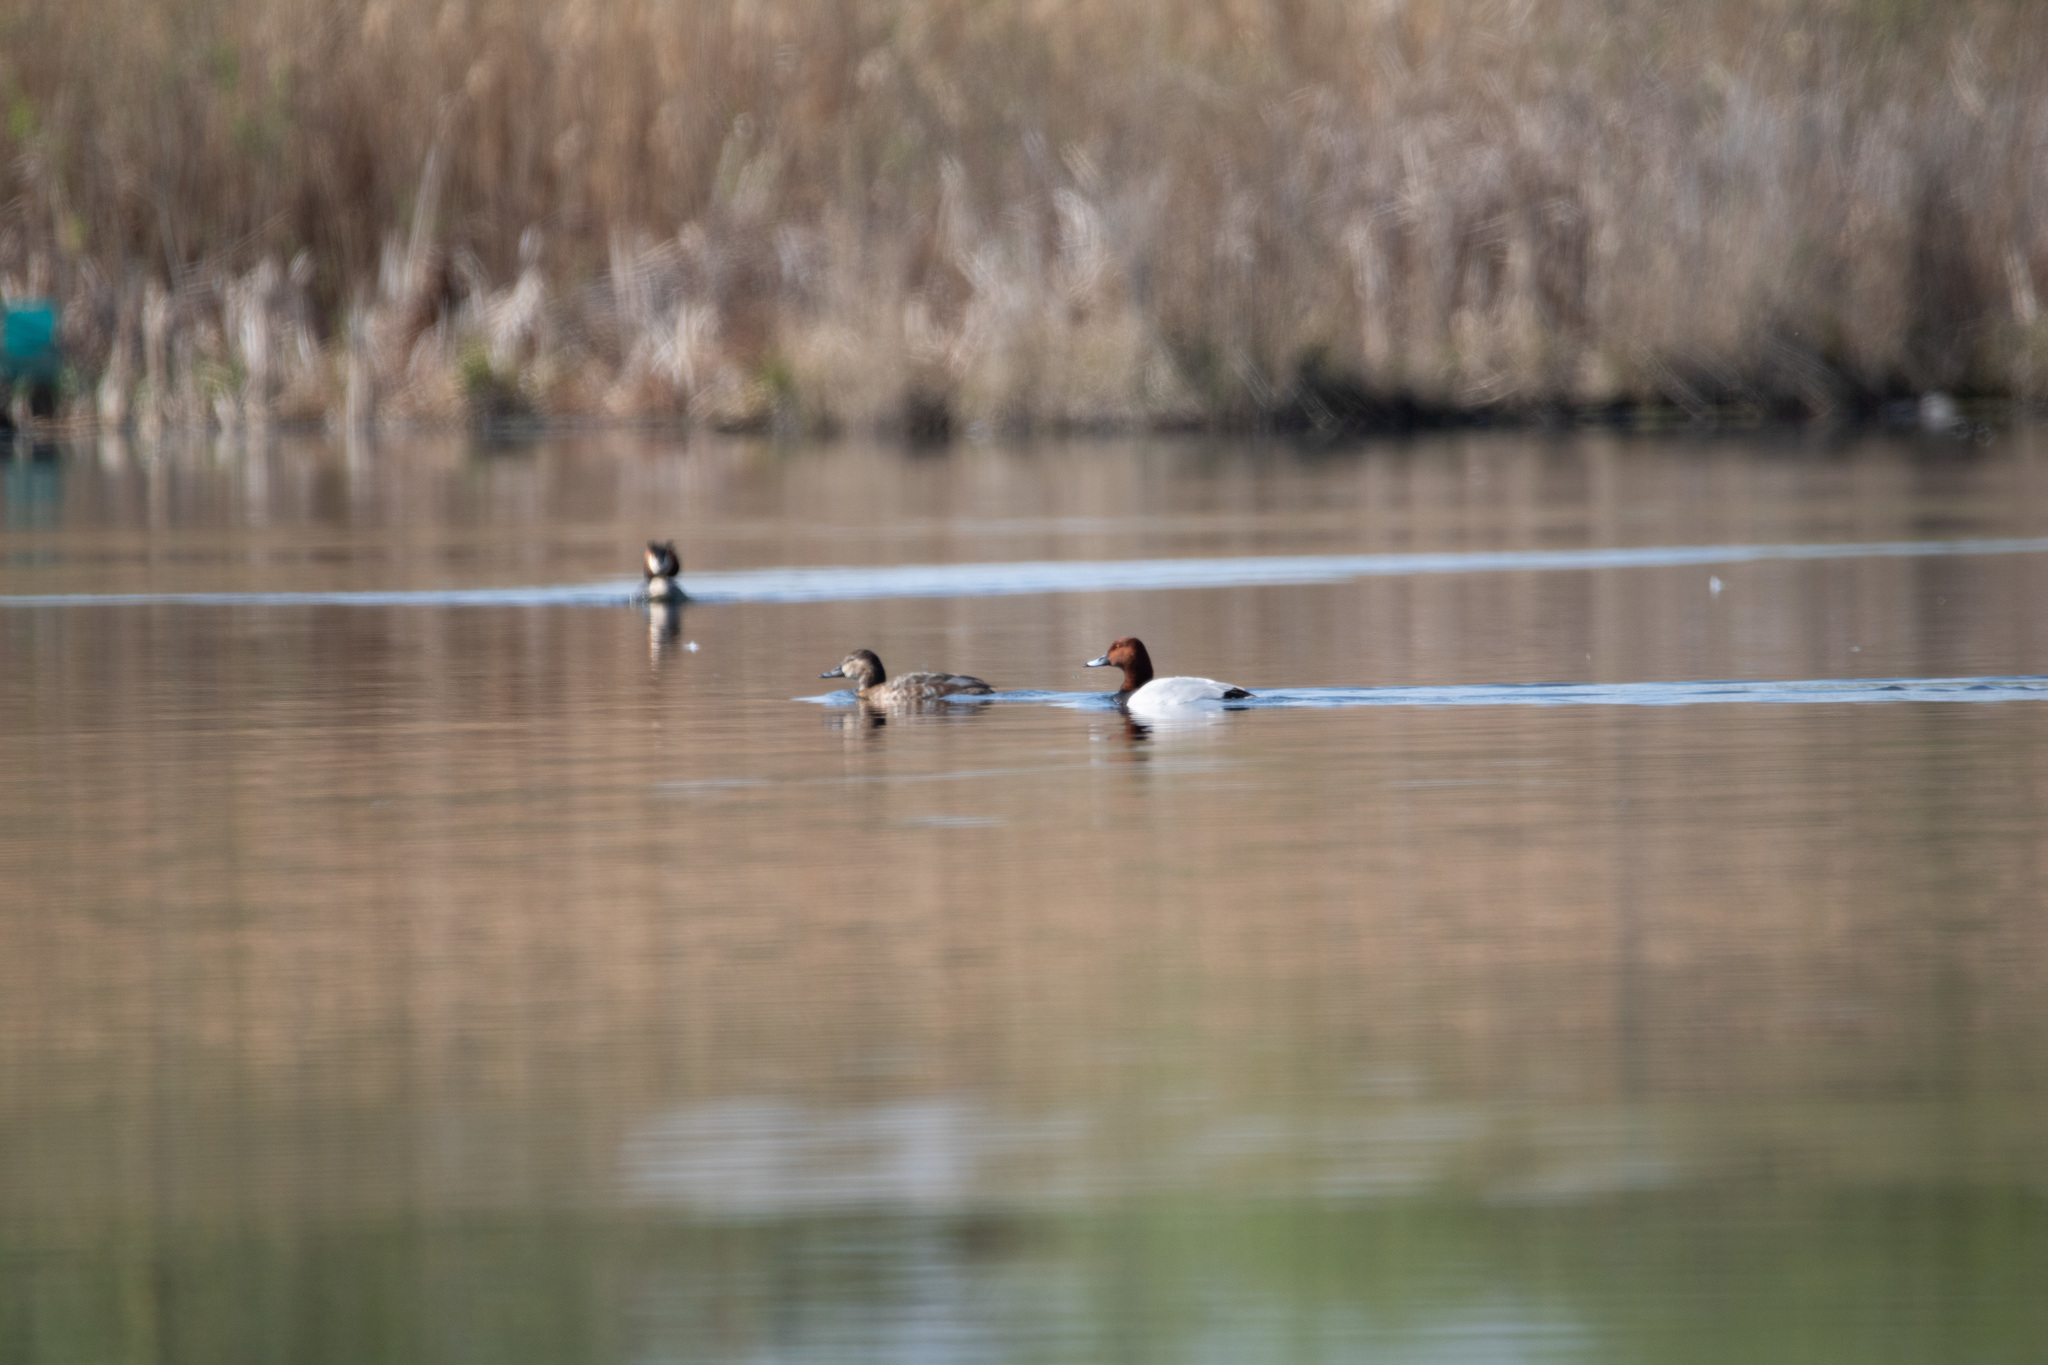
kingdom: Animalia
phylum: Chordata
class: Aves
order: Anseriformes
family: Anatidae
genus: Aythya
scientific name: Aythya ferina
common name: Common pochard
